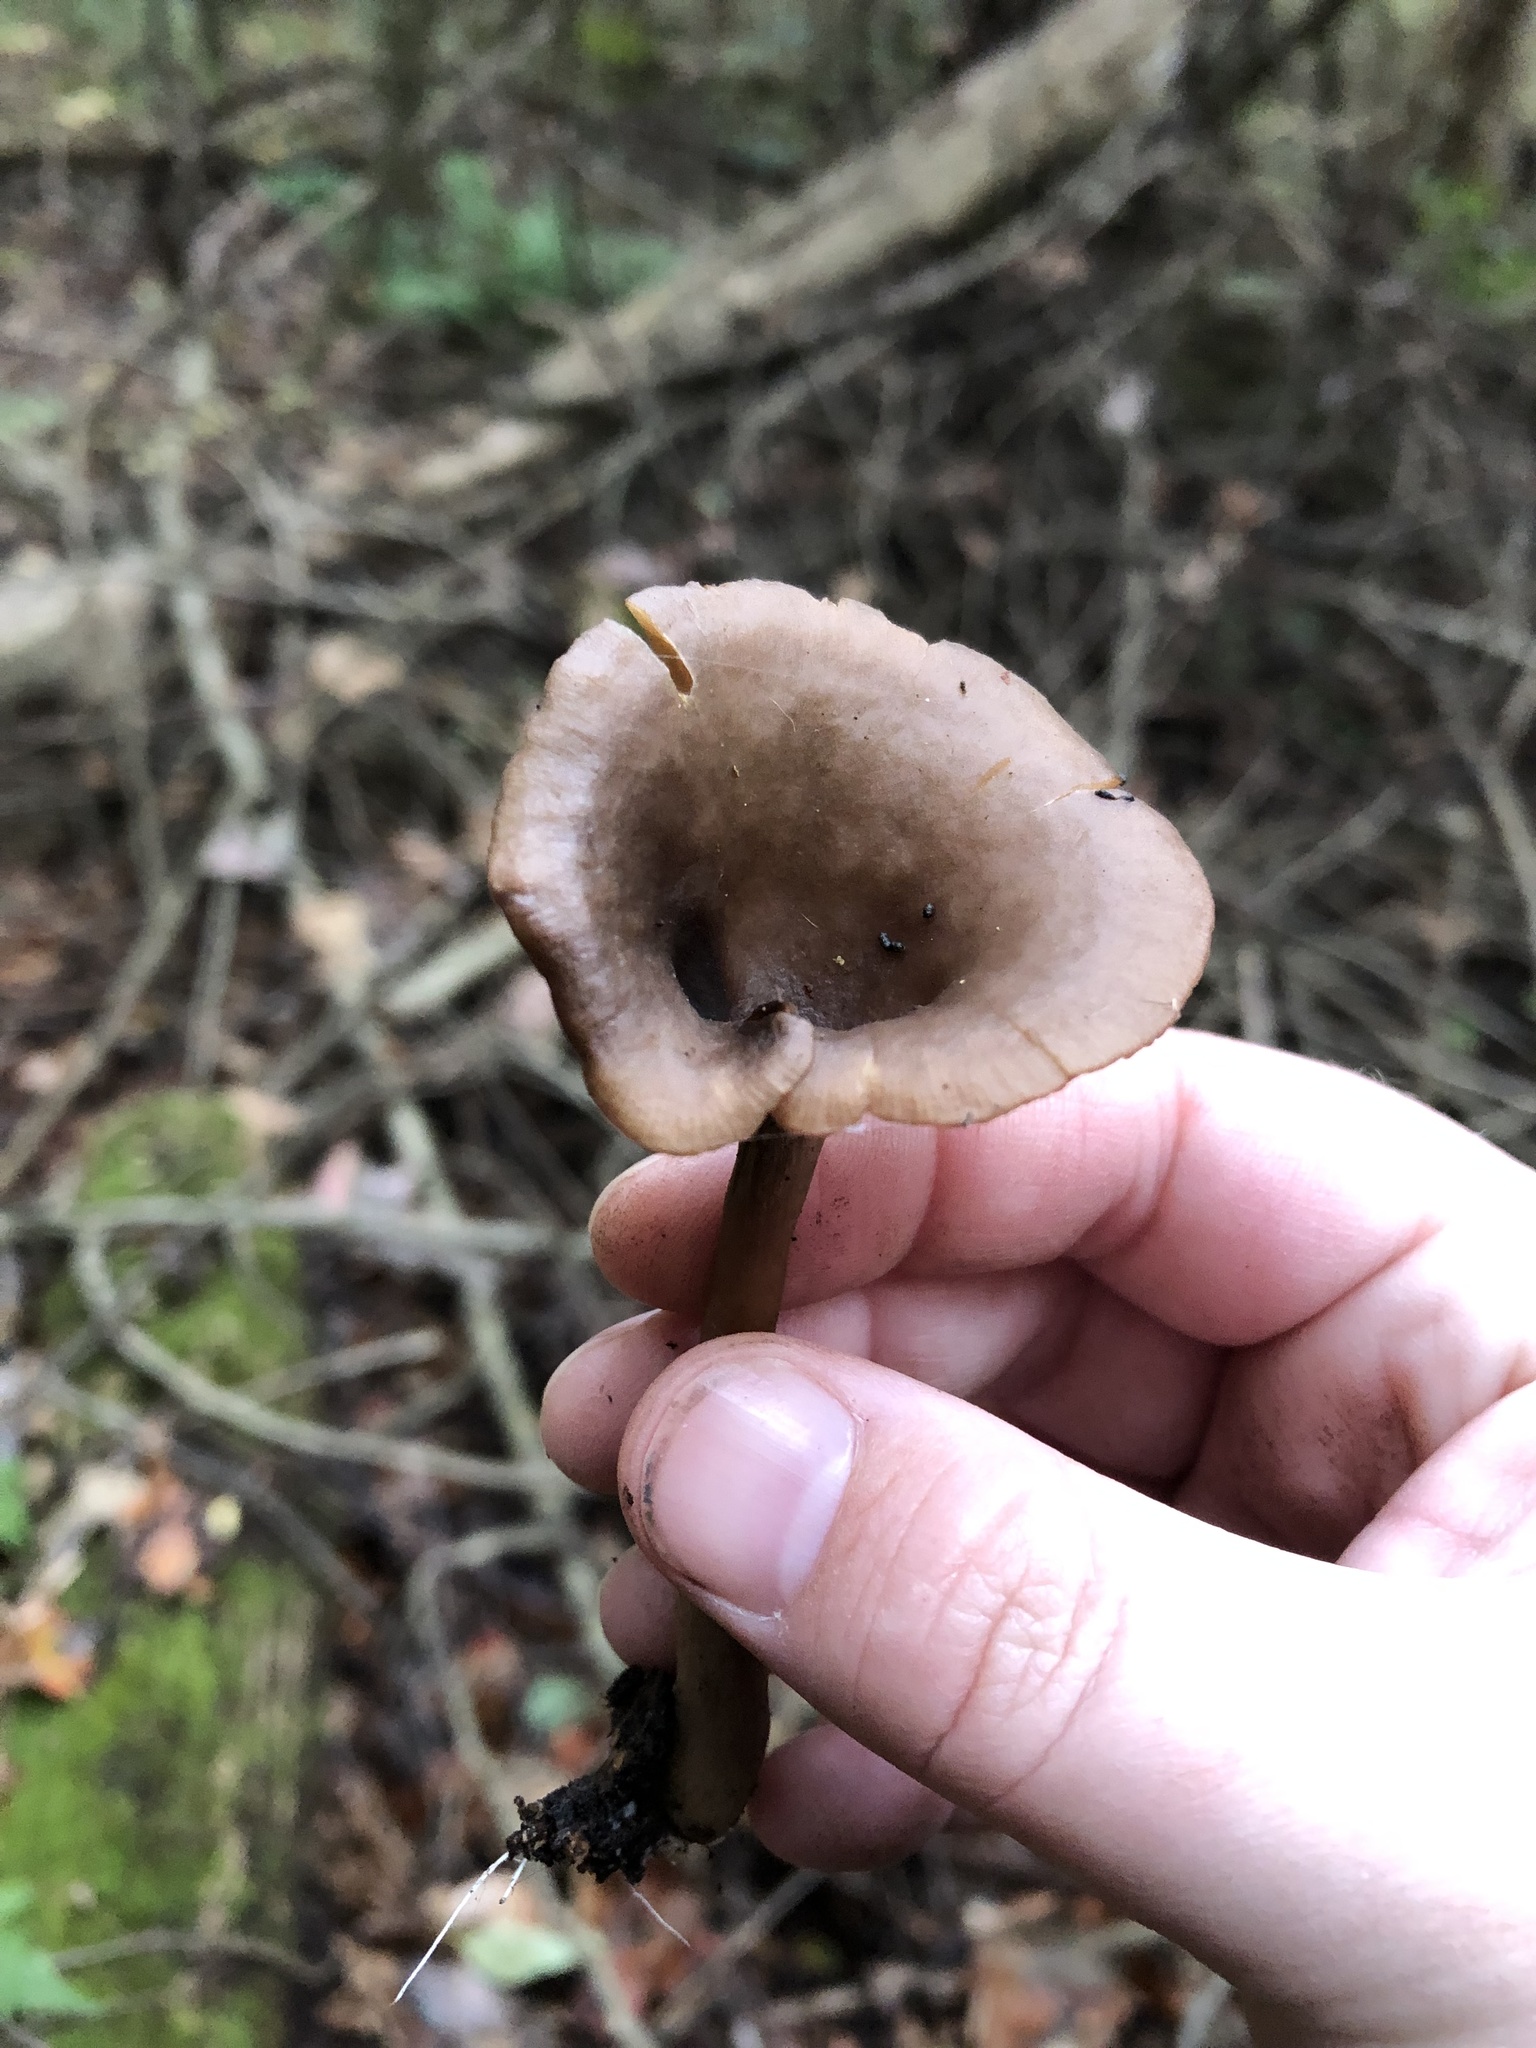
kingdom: Fungi
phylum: Basidiomycota
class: Agaricomycetes
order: Agaricales
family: Pseudoclitocybaceae
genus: Pseudoclitocybe
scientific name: Pseudoclitocybe cyathiformis
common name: Goblet
